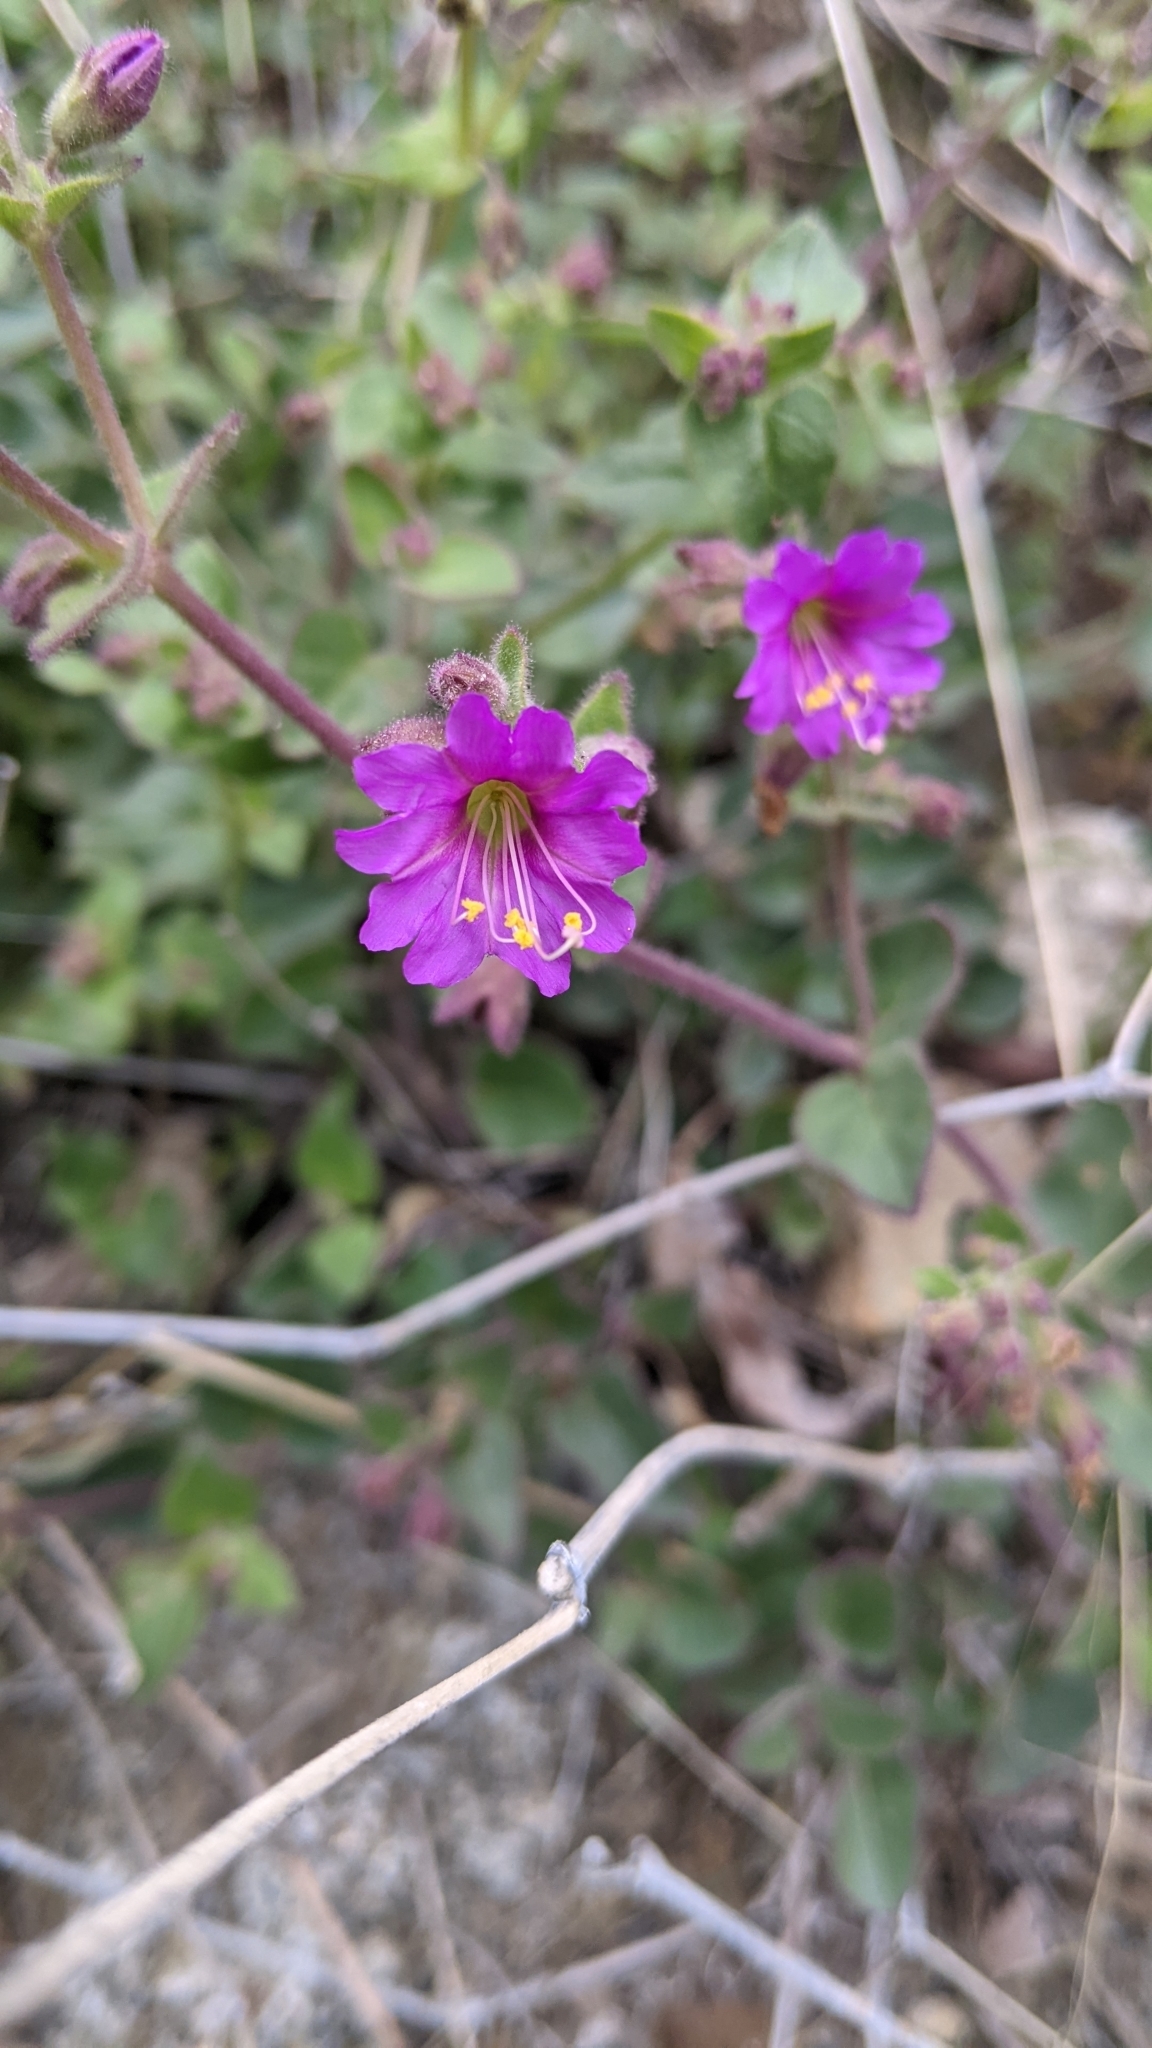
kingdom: Plantae
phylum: Tracheophyta
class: Magnoliopsida
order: Caryophyllales
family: Nyctaginaceae
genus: Mirabilis
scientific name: Mirabilis laevis
